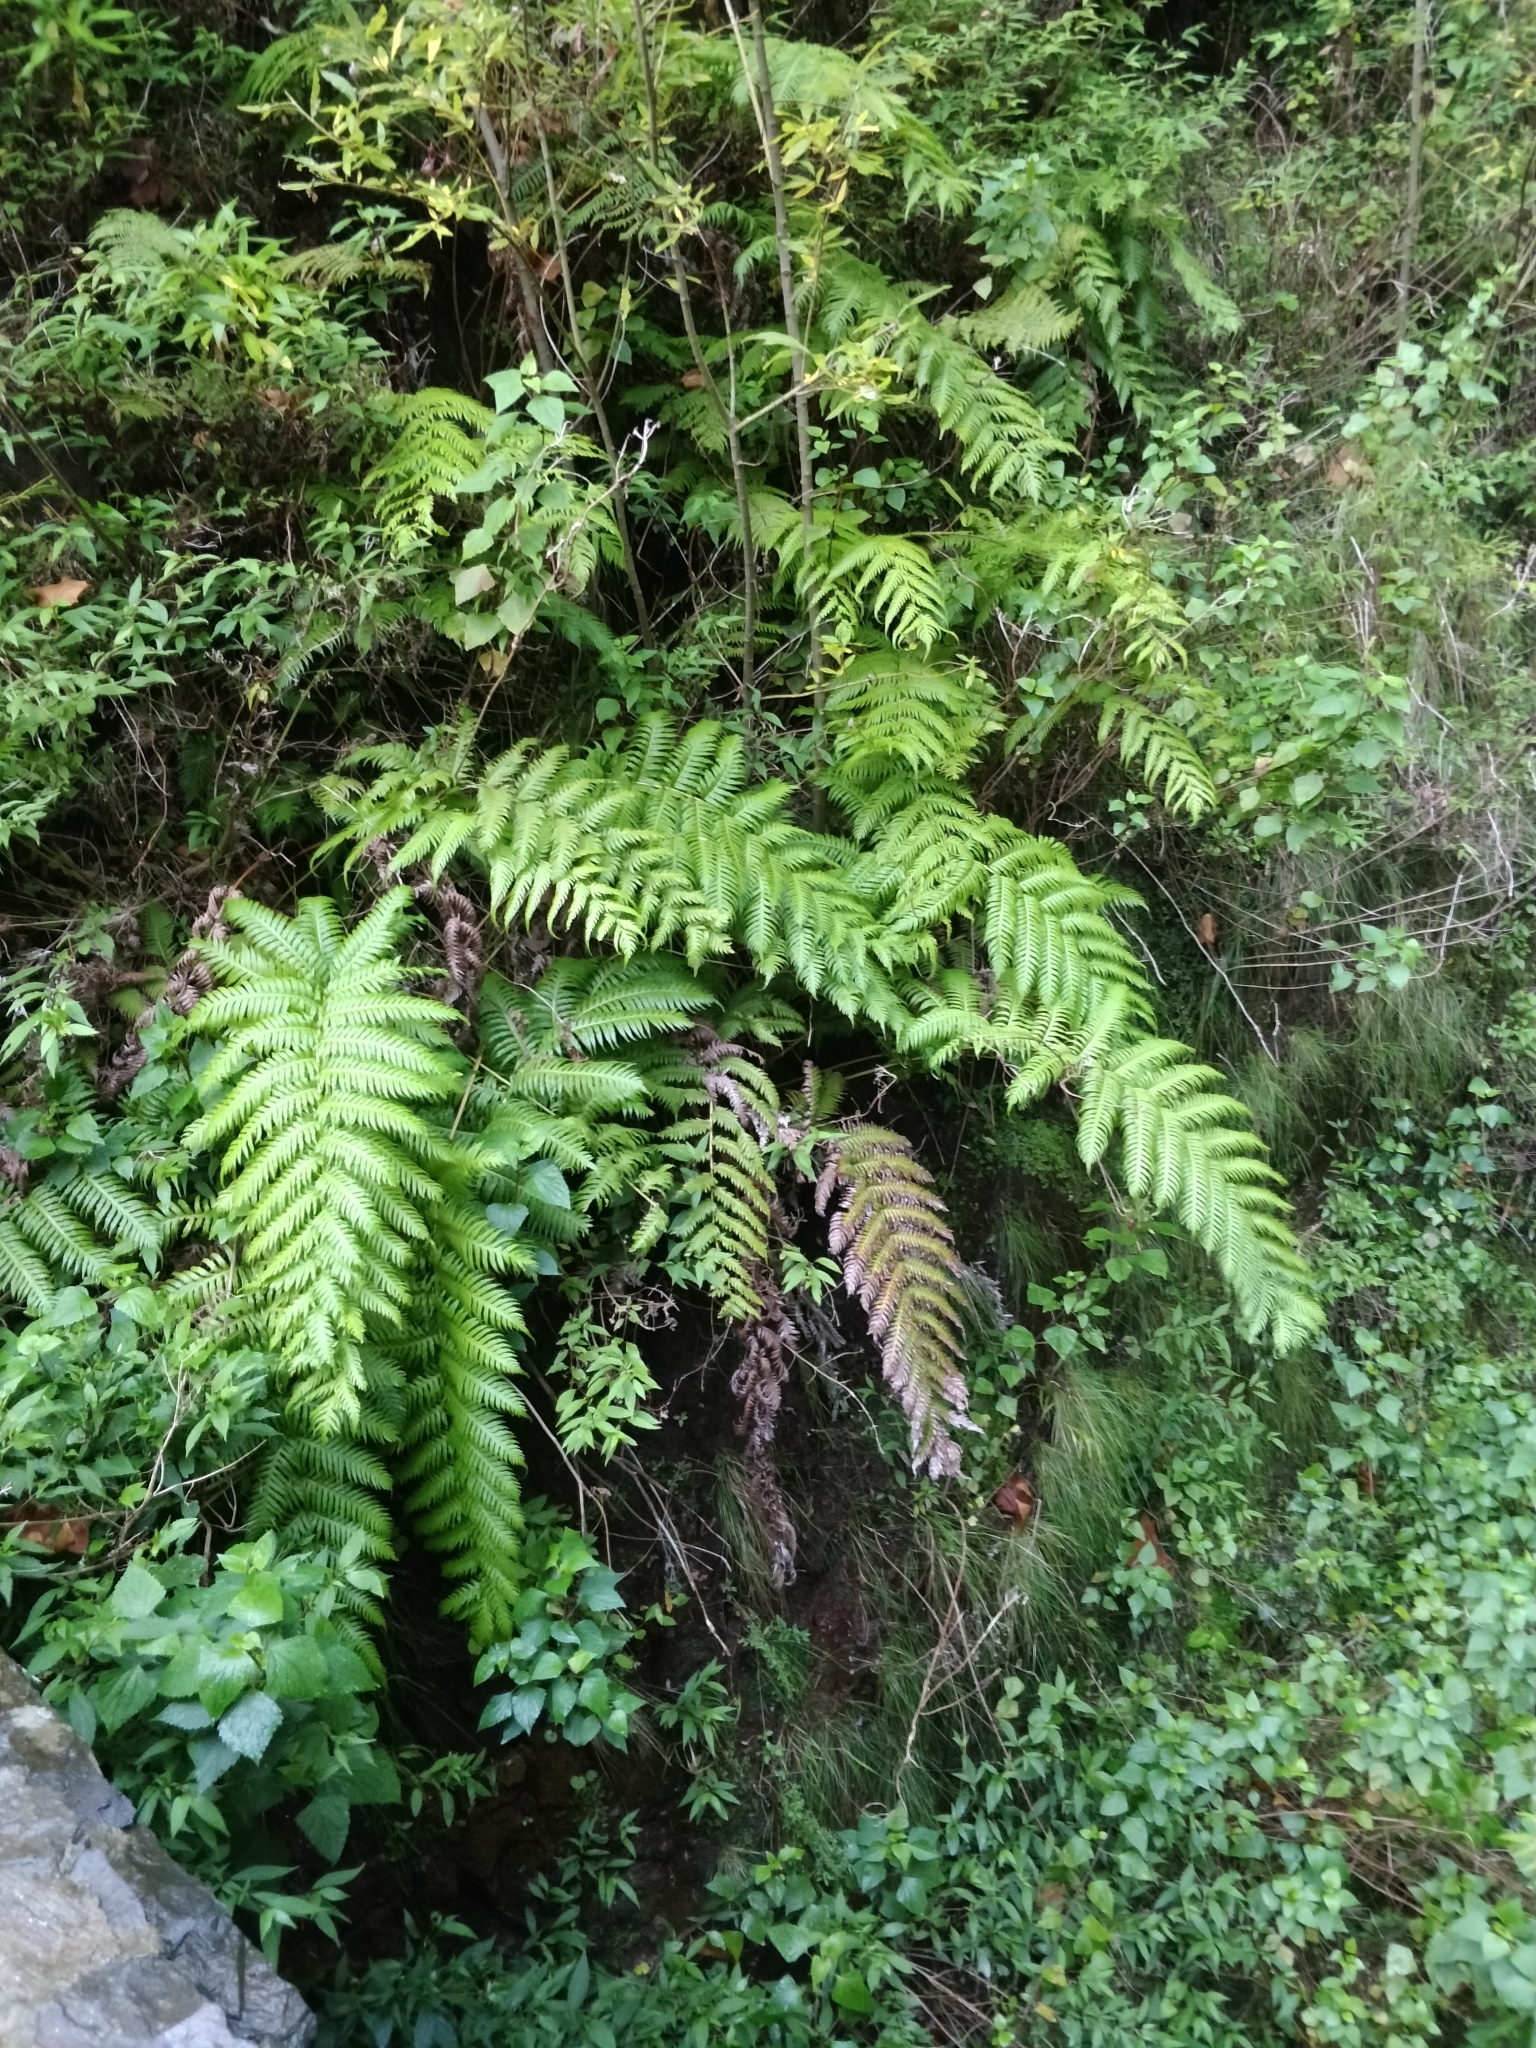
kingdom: Plantae
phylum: Tracheophyta
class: Polypodiopsida
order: Polypodiales
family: Blechnaceae
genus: Woodwardia
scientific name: Woodwardia radicans
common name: Rooting chainfern
